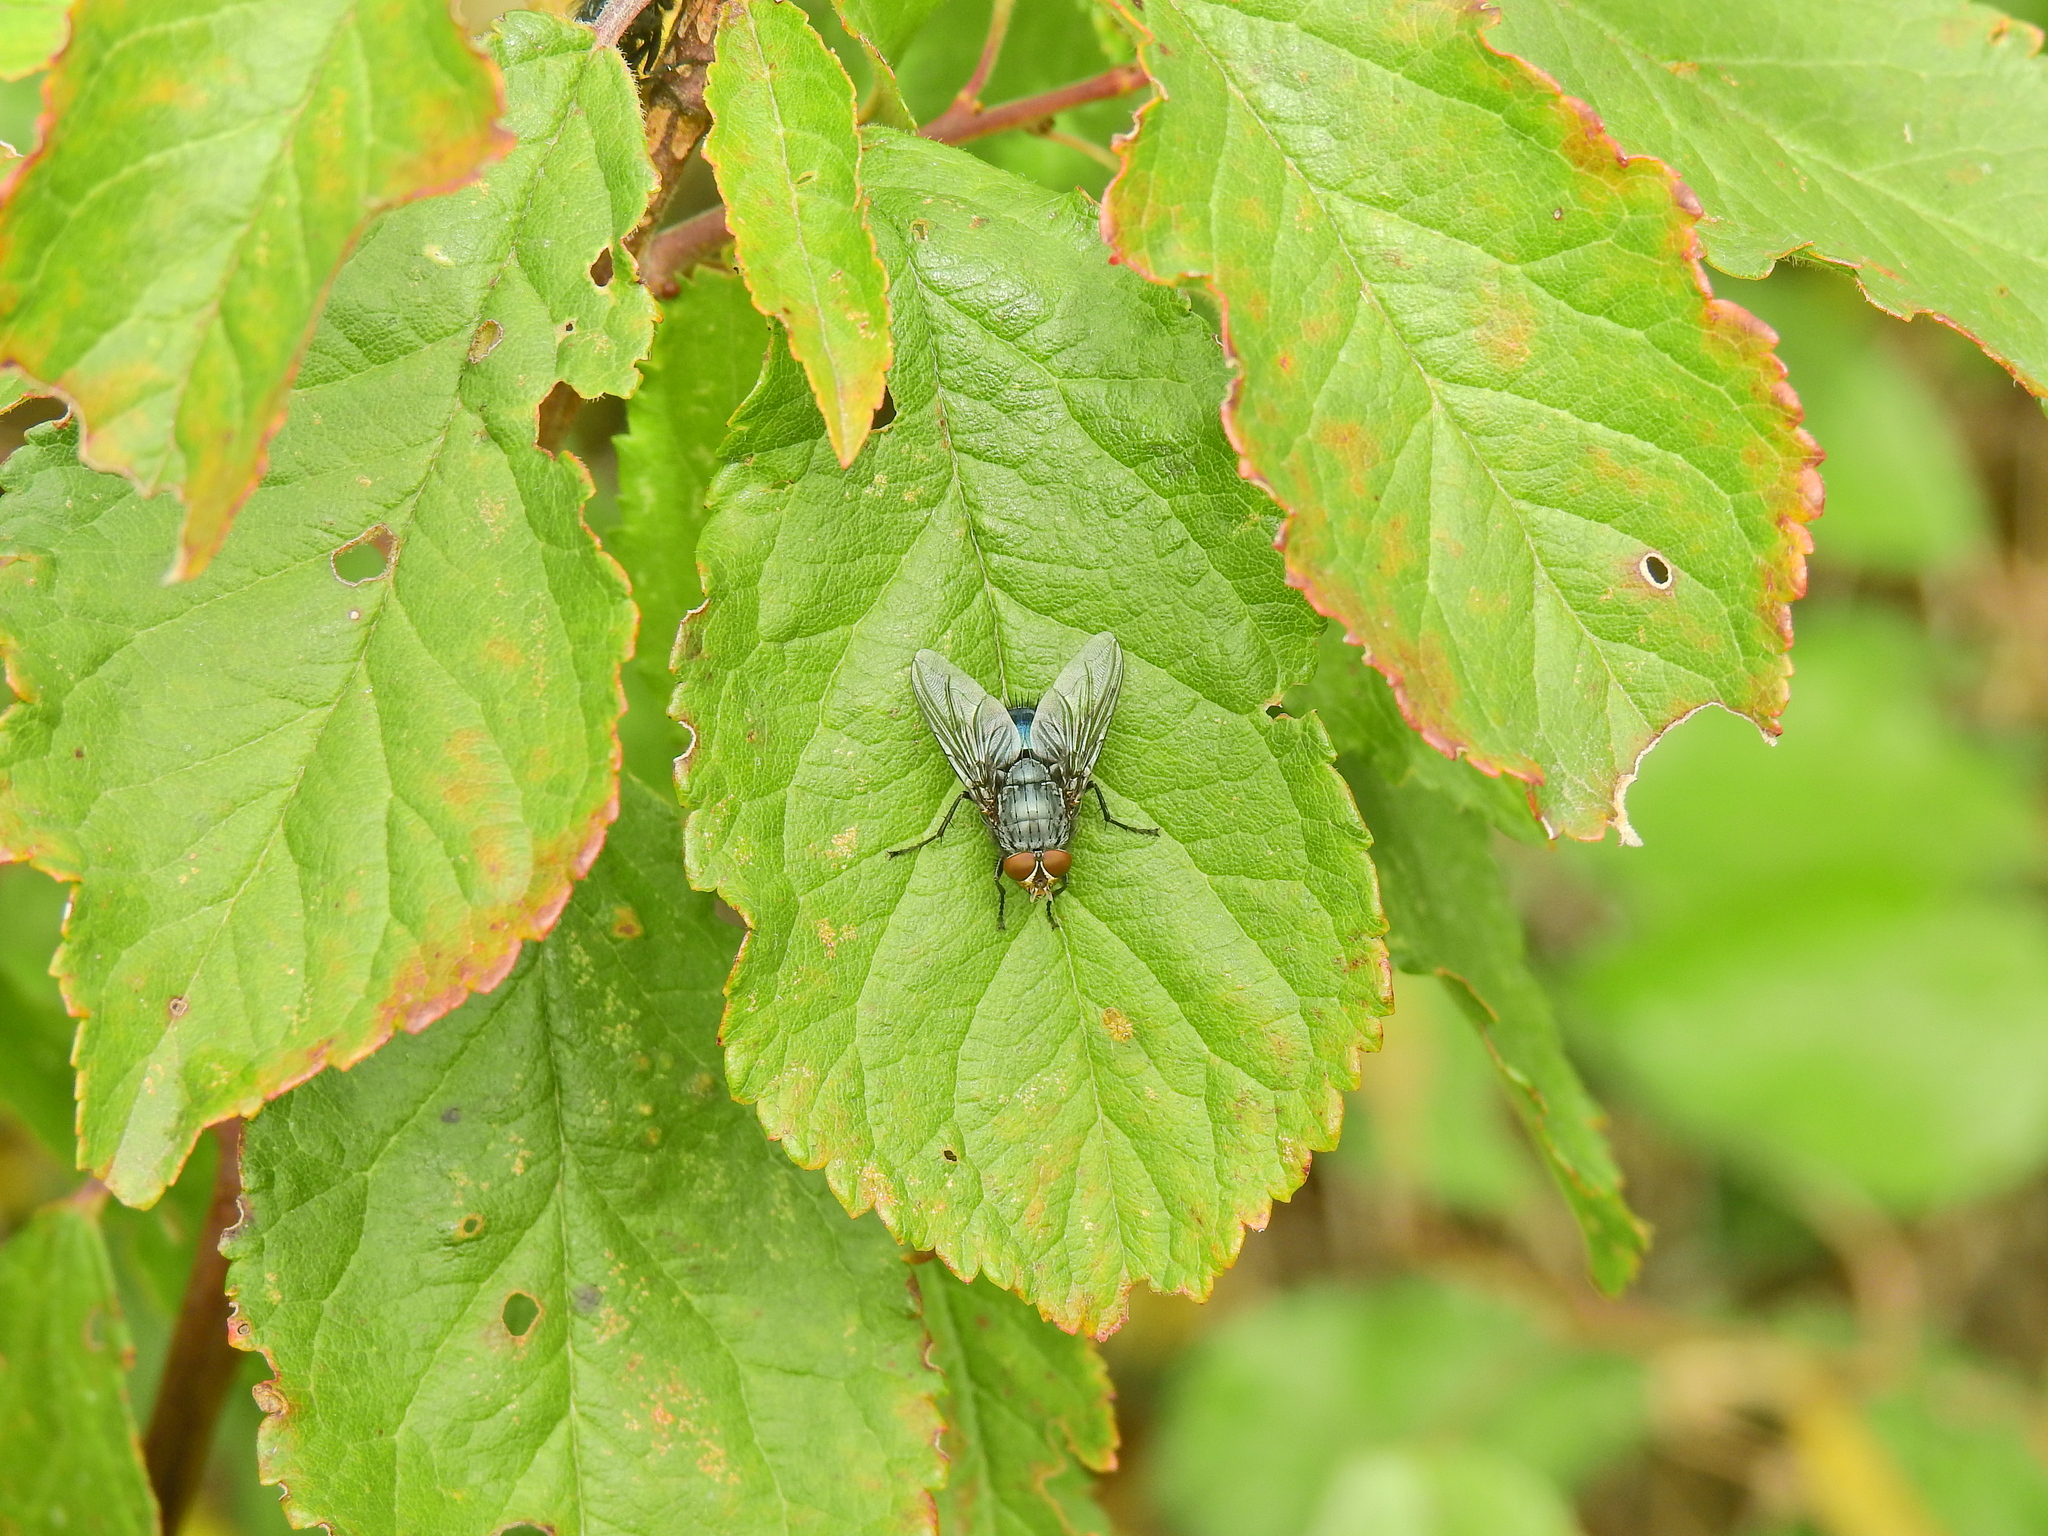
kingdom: Animalia
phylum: Arthropoda
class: Insecta
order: Diptera
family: Calliphoridae
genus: Calliphora
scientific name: Calliphora
